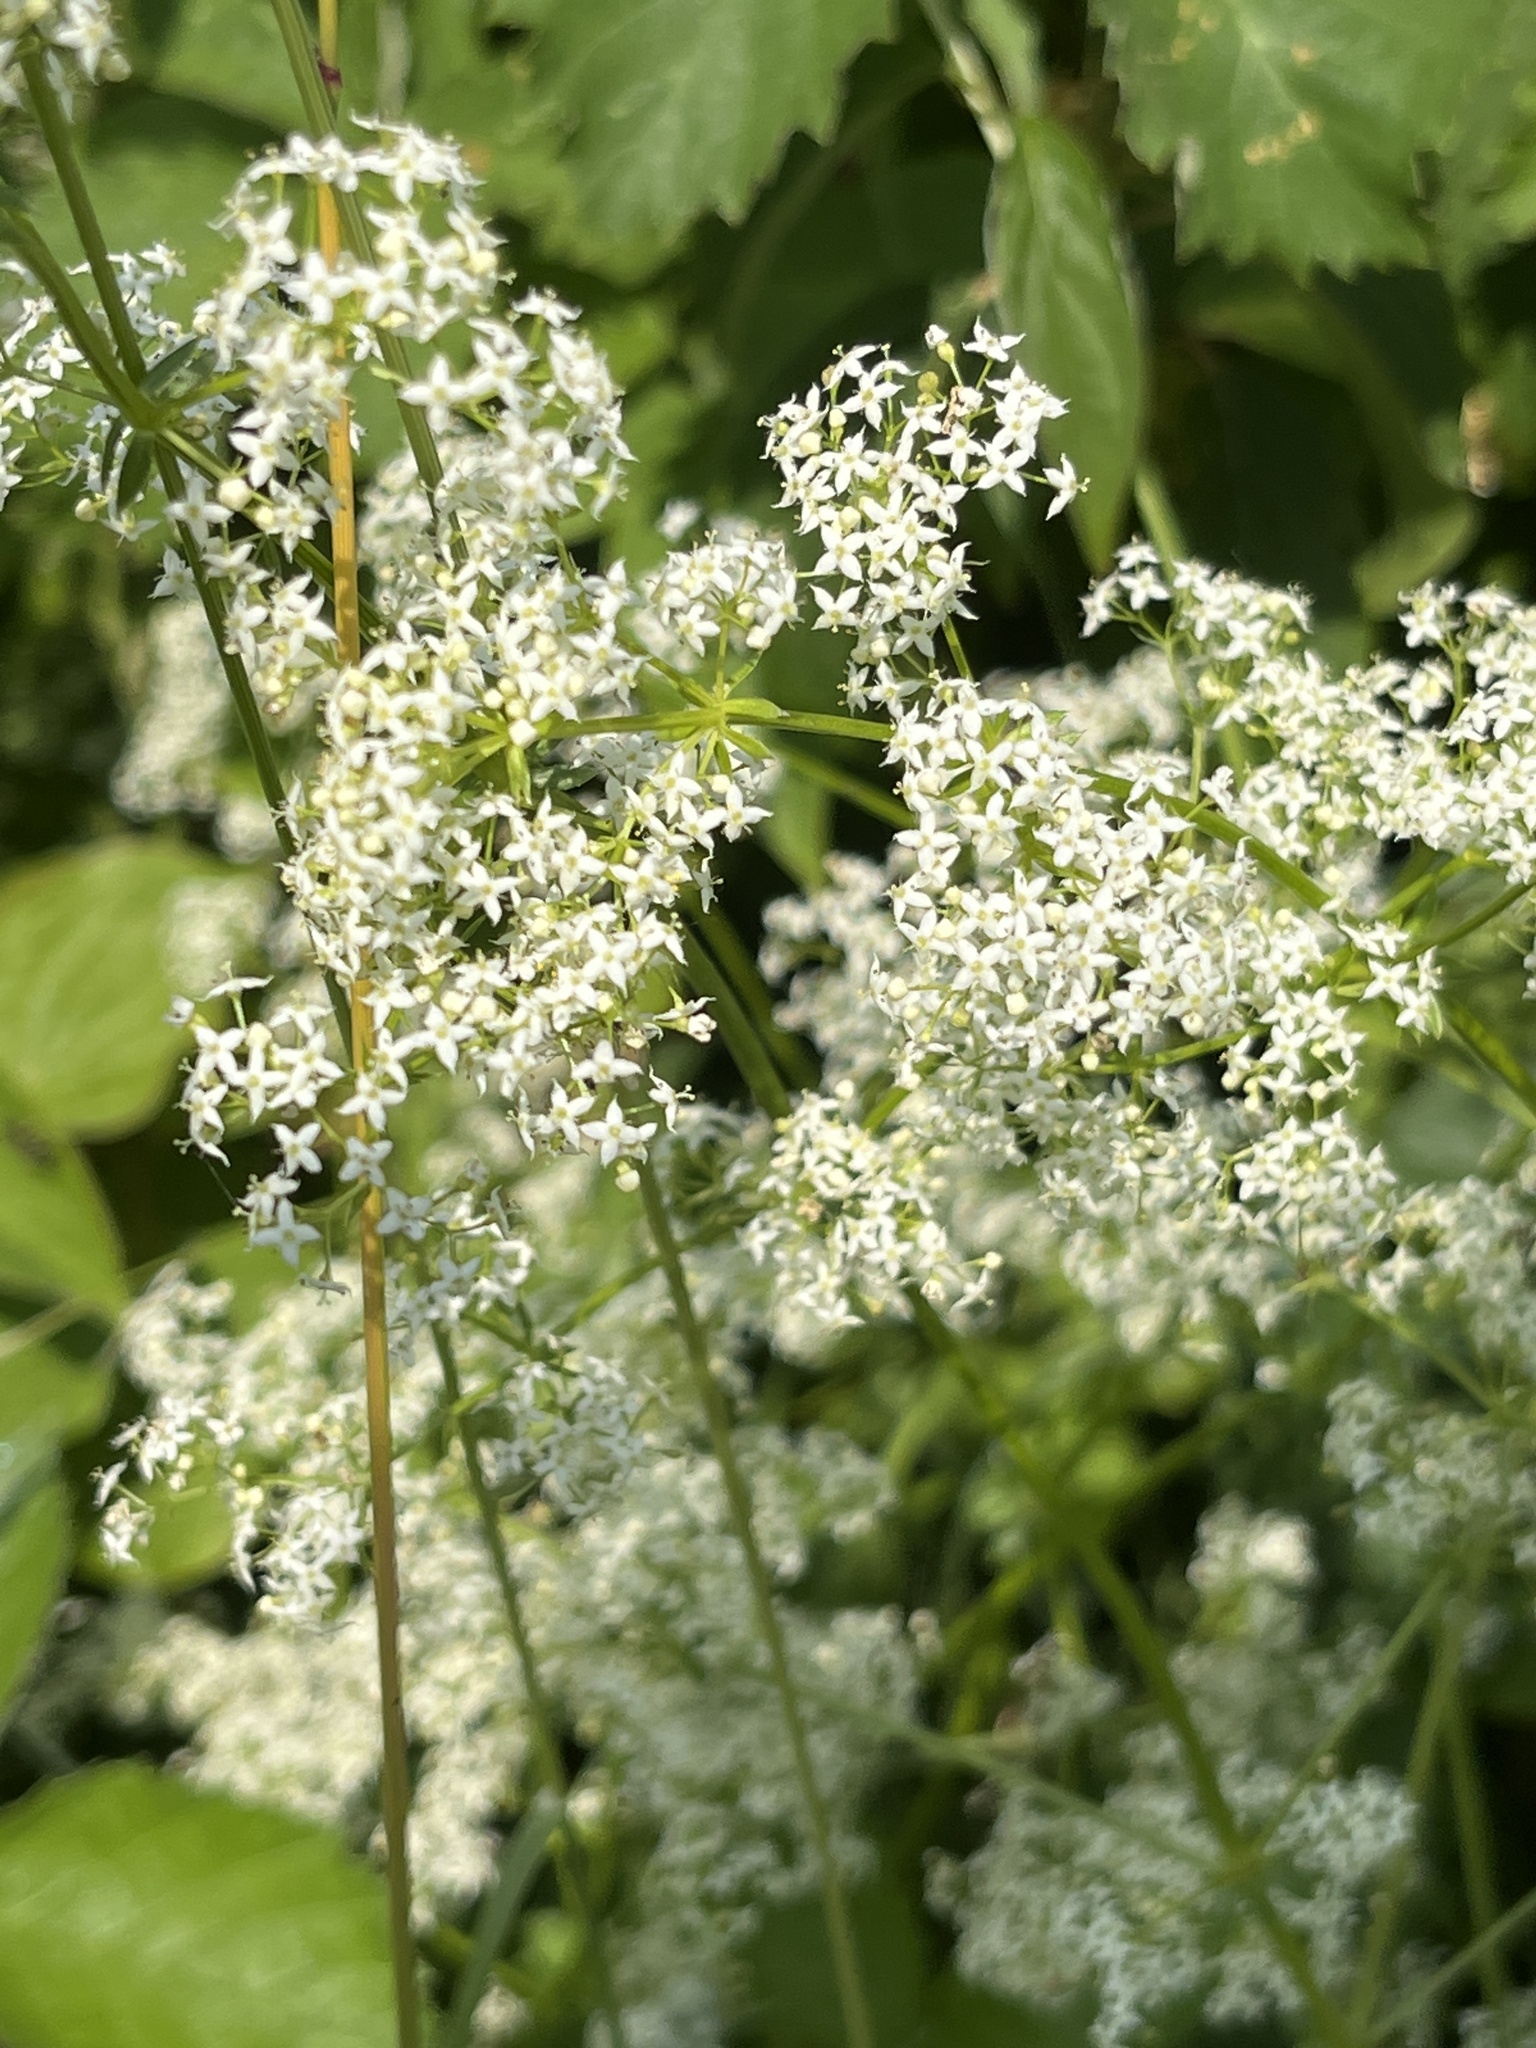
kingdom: Plantae
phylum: Tracheophyta
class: Magnoliopsida
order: Gentianales
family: Rubiaceae
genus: Galium
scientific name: Galium mollugo
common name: Hedge bedstraw
